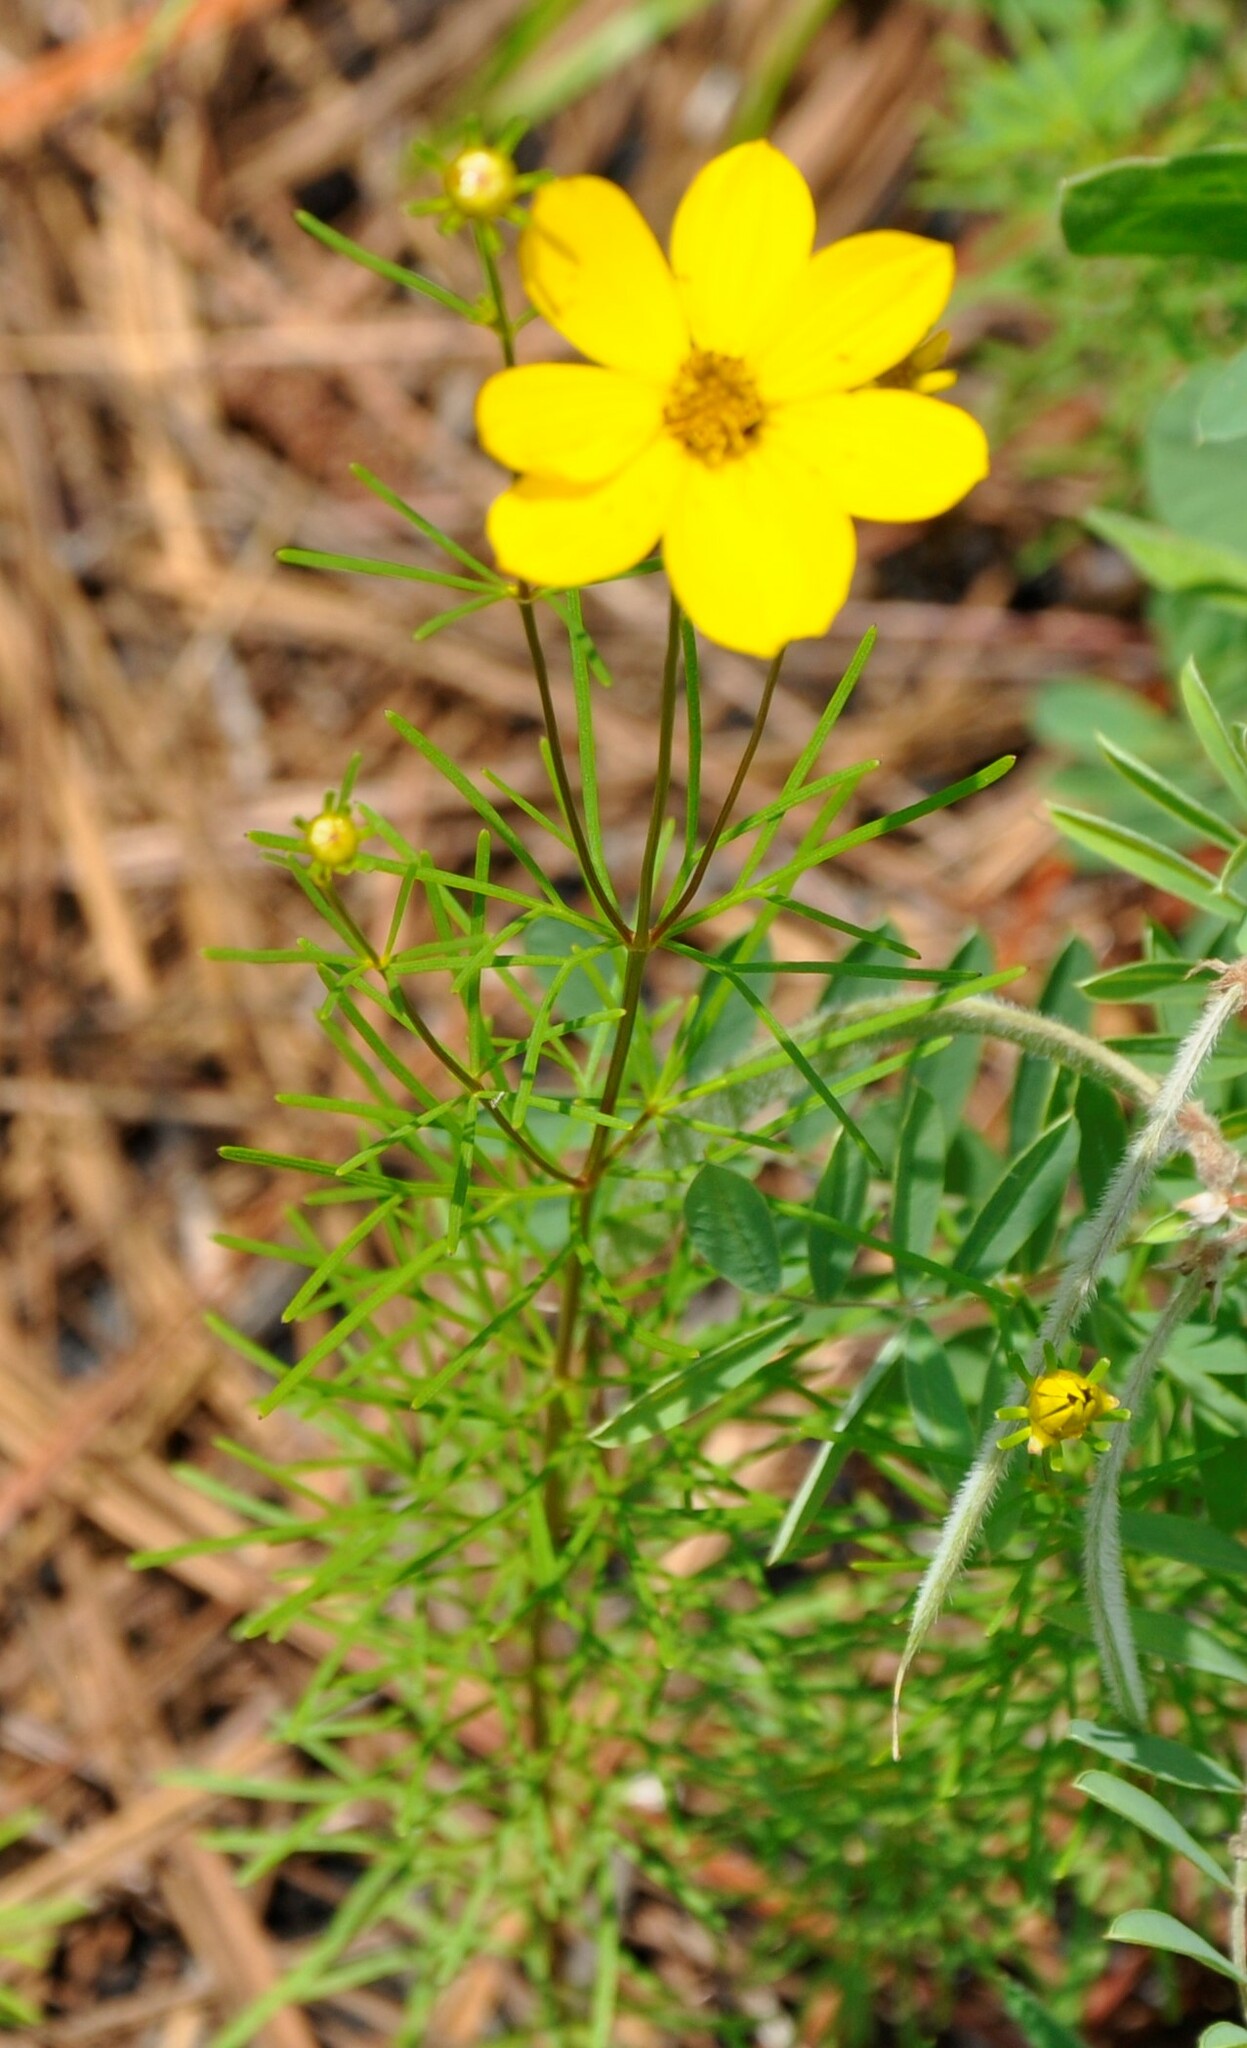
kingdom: Plantae
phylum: Tracheophyta
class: Magnoliopsida
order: Asterales
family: Asteraceae
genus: Coreopsis
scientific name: Coreopsis verticillata
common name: Whorled tickseed
